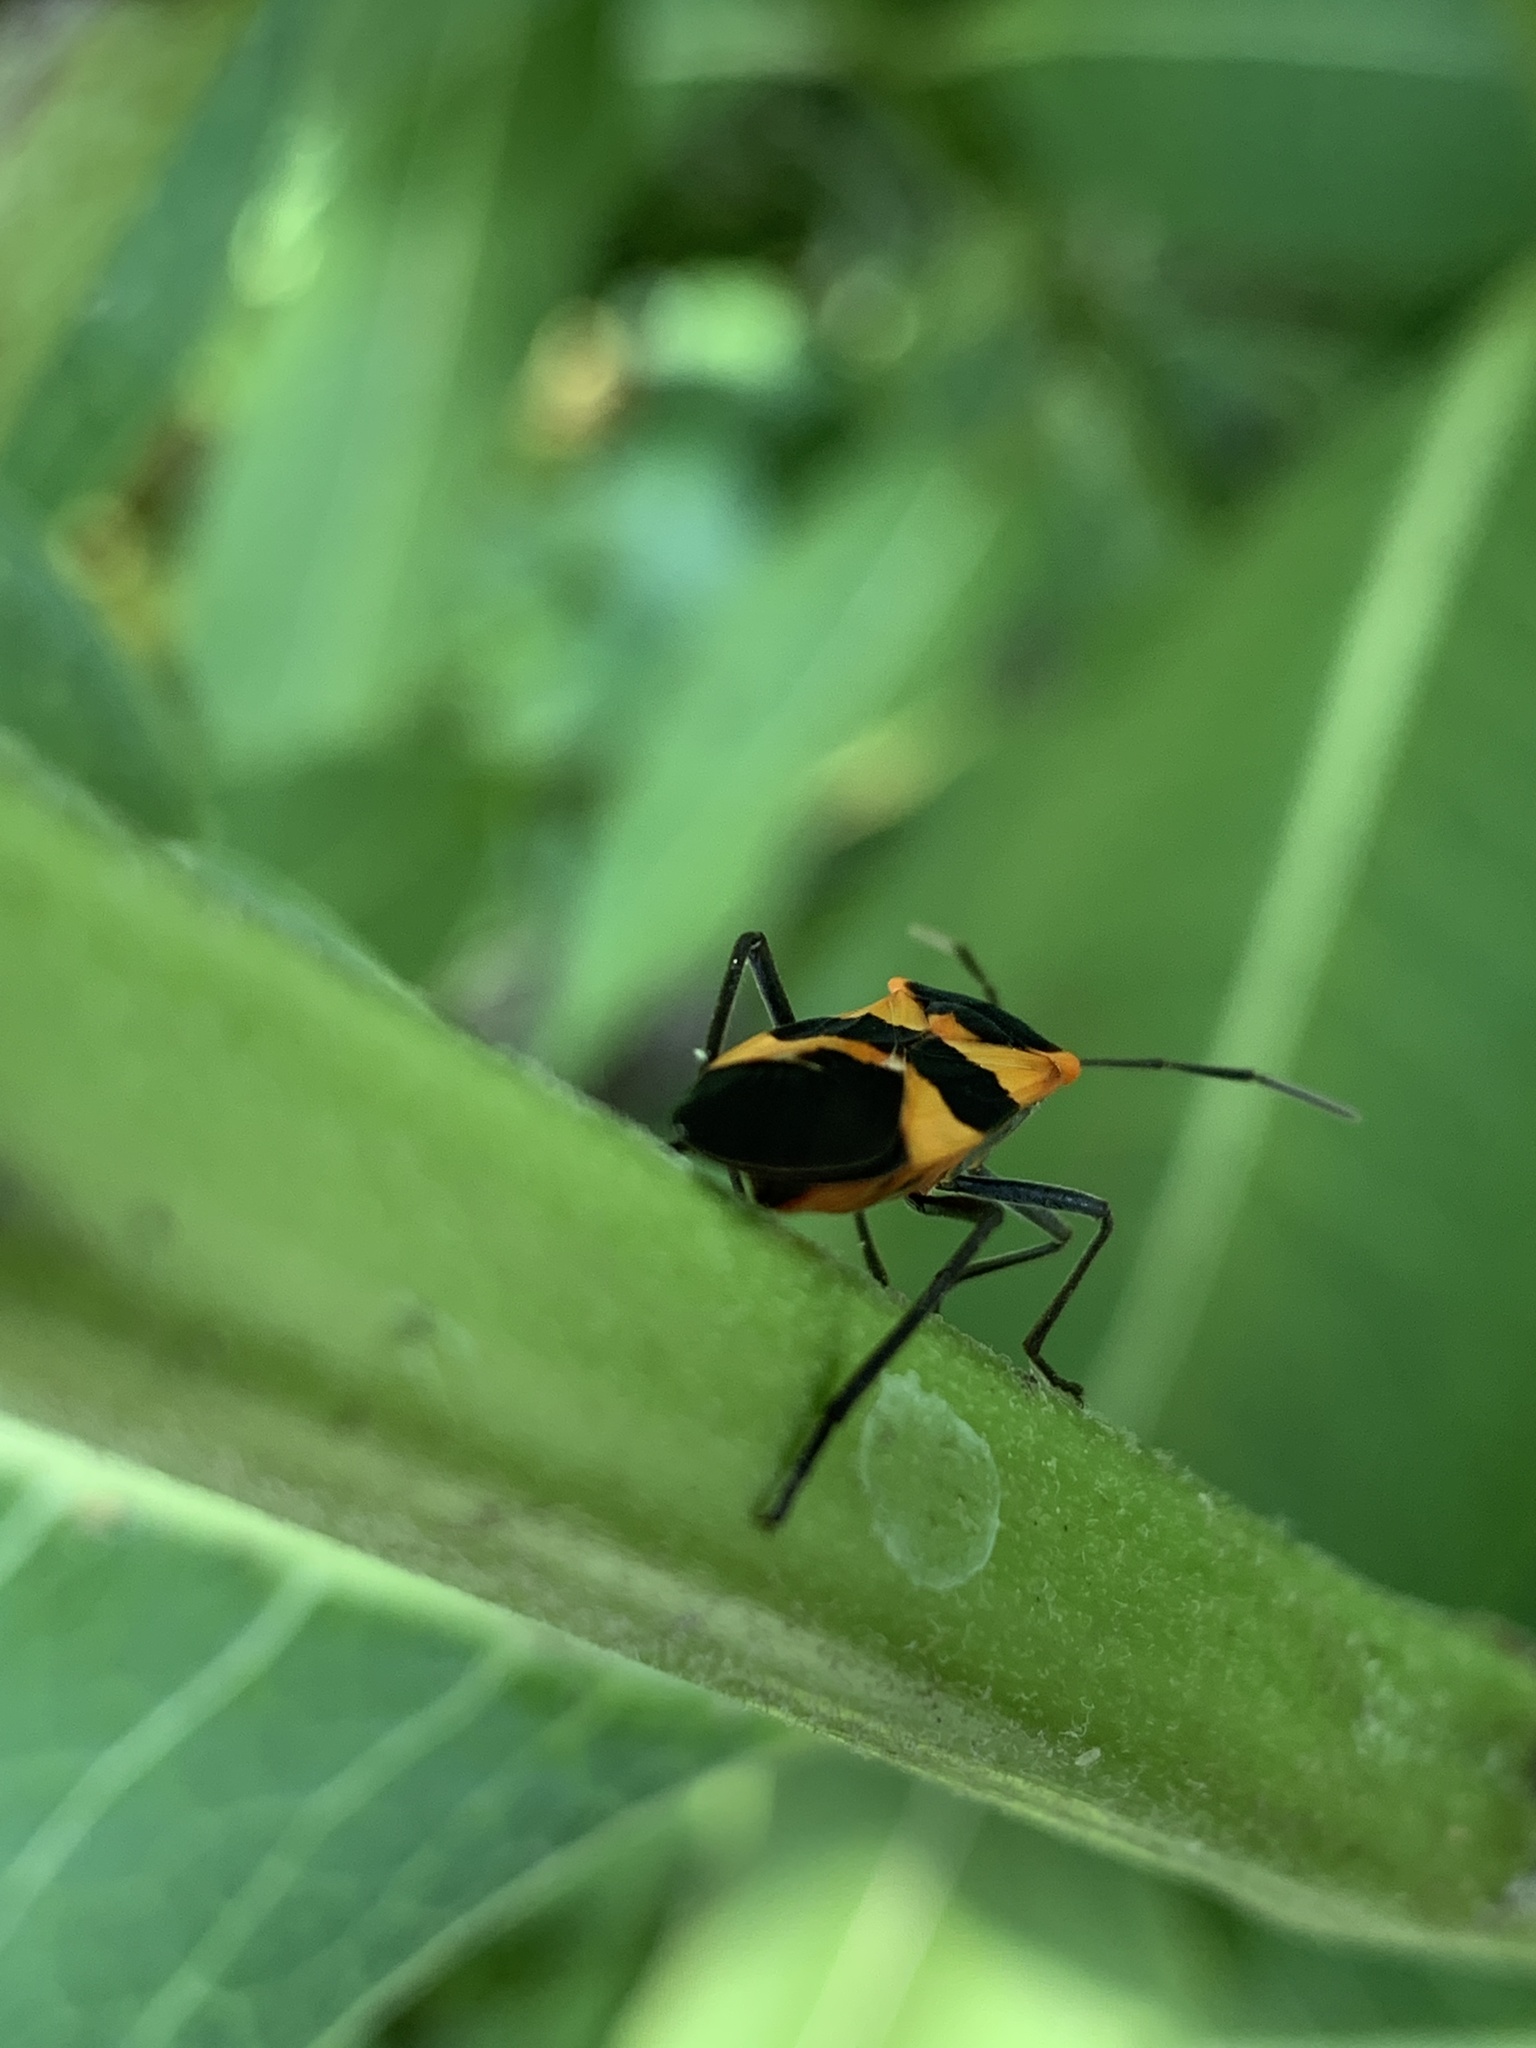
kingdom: Animalia
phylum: Arthropoda
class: Insecta
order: Hemiptera
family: Lygaeidae
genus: Oncopeltus
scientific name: Oncopeltus fasciatus
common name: Large milkweed bug
